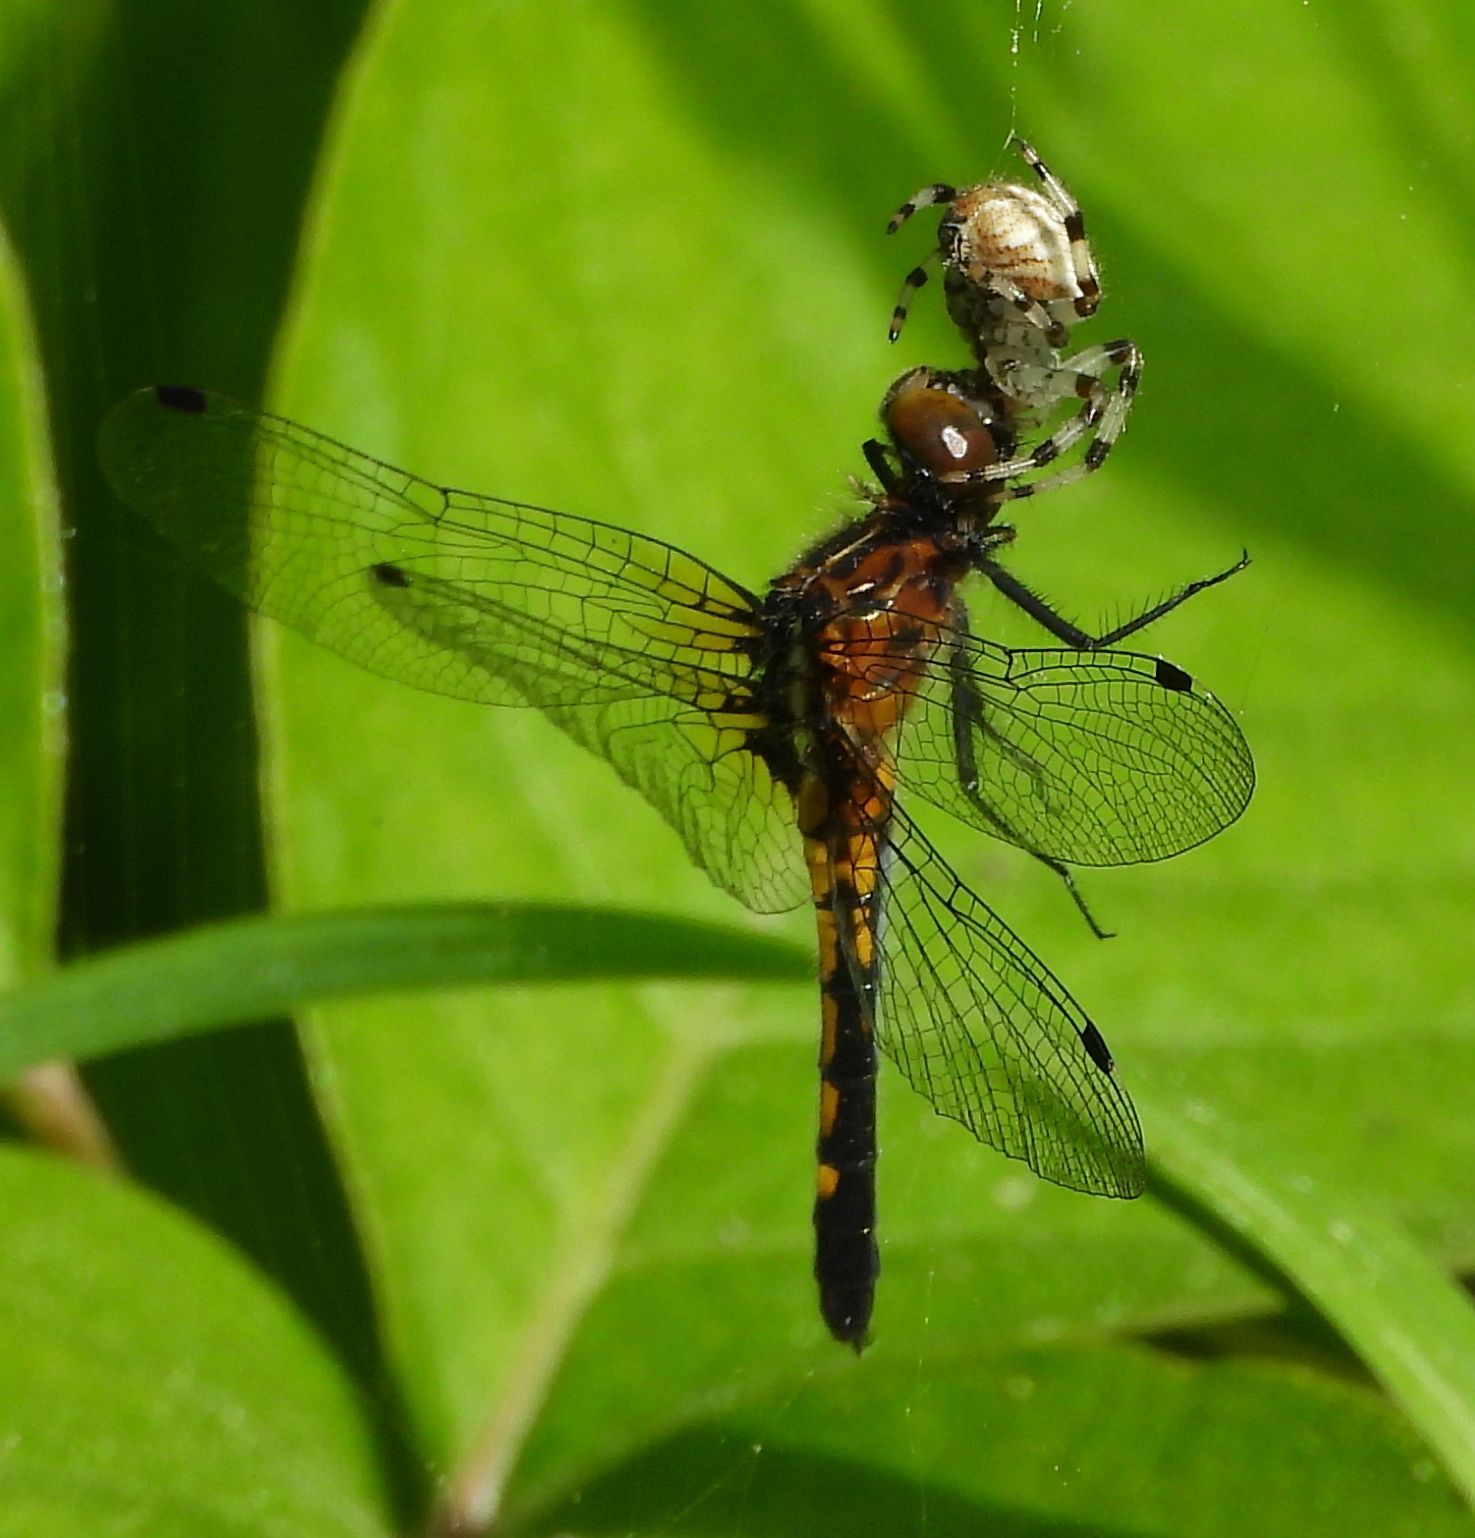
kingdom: Animalia
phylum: Arthropoda
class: Arachnida
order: Araneae
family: Araneidae
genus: Araneus
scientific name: Araneus trifolium
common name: Shamrock orbweaver
